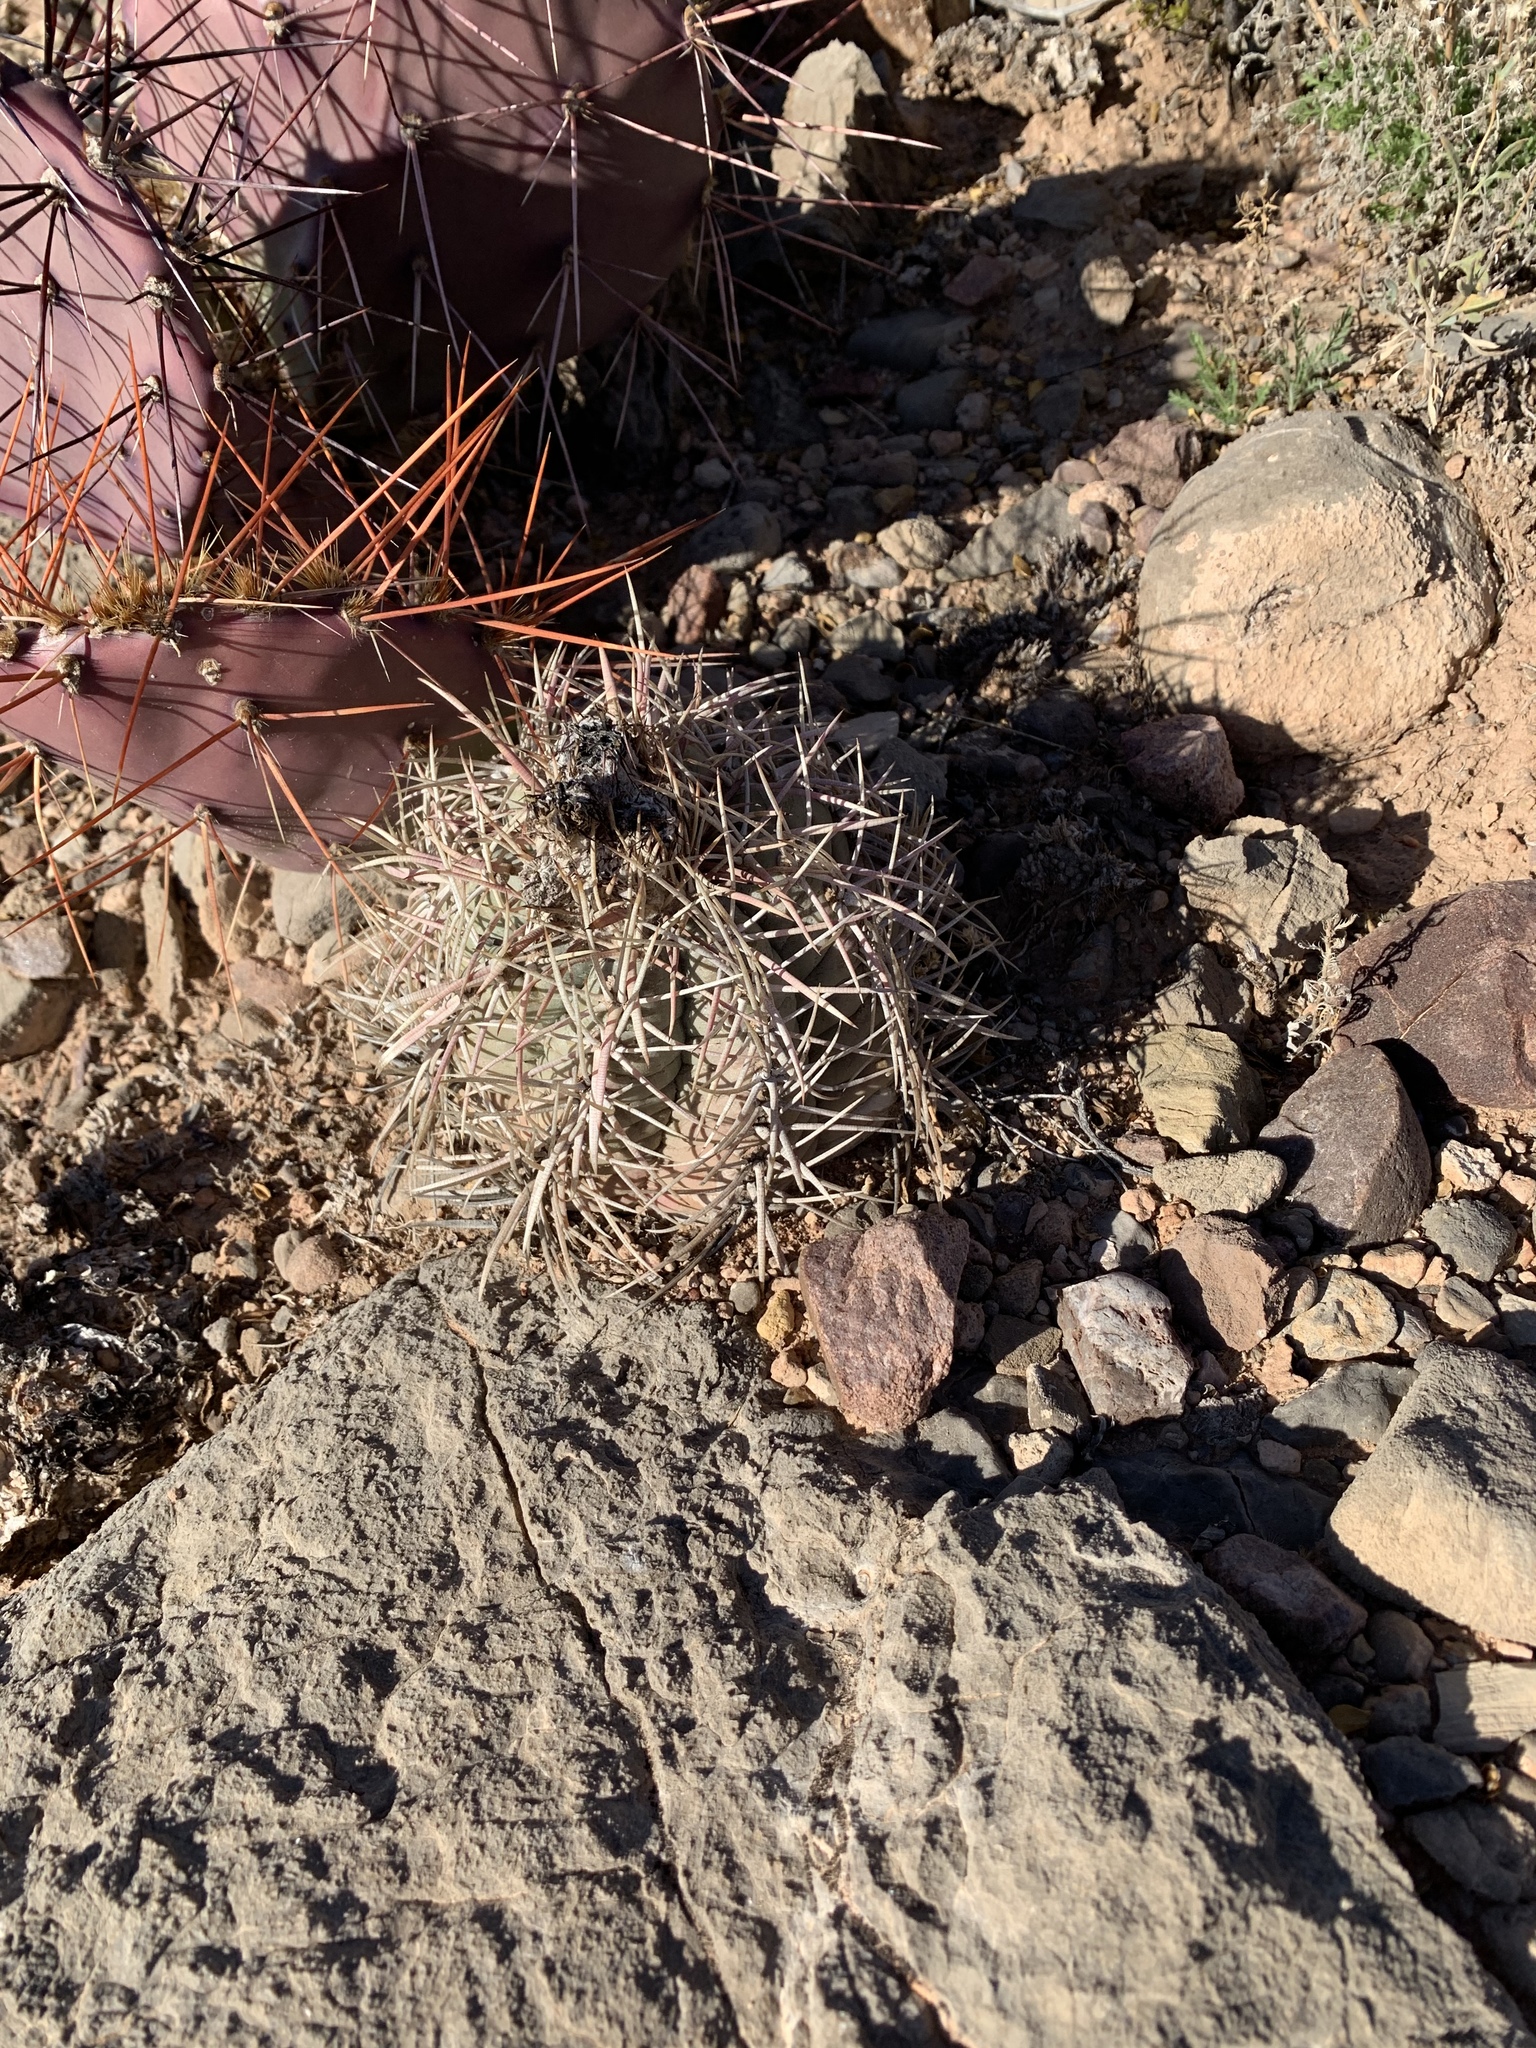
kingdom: Plantae
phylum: Tracheophyta
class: Magnoliopsida
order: Caryophyllales
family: Cactaceae
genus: Echinocactus
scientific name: Echinocactus horizonthalonius
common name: Devilshead
